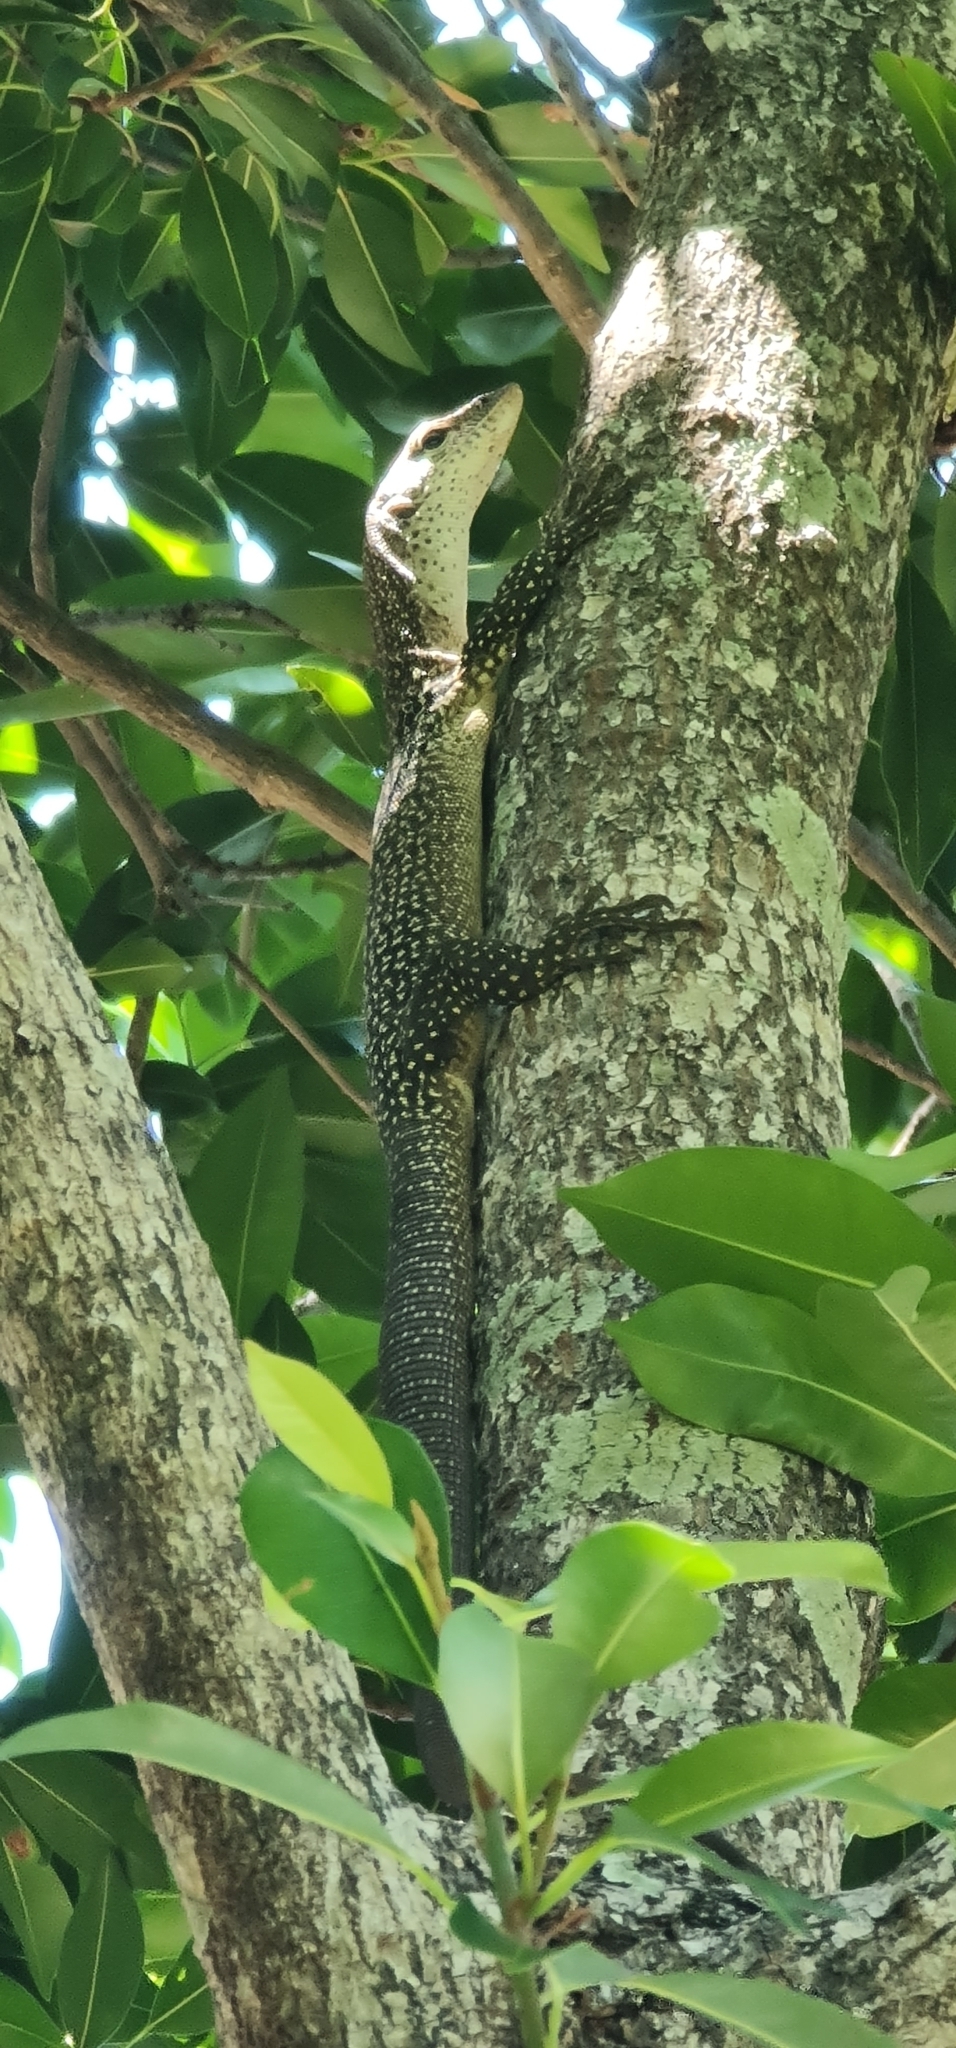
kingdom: Animalia
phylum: Chordata
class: Squamata
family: Varanidae
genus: Varanus
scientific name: Varanus scalaris
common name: Banded tree monitor
